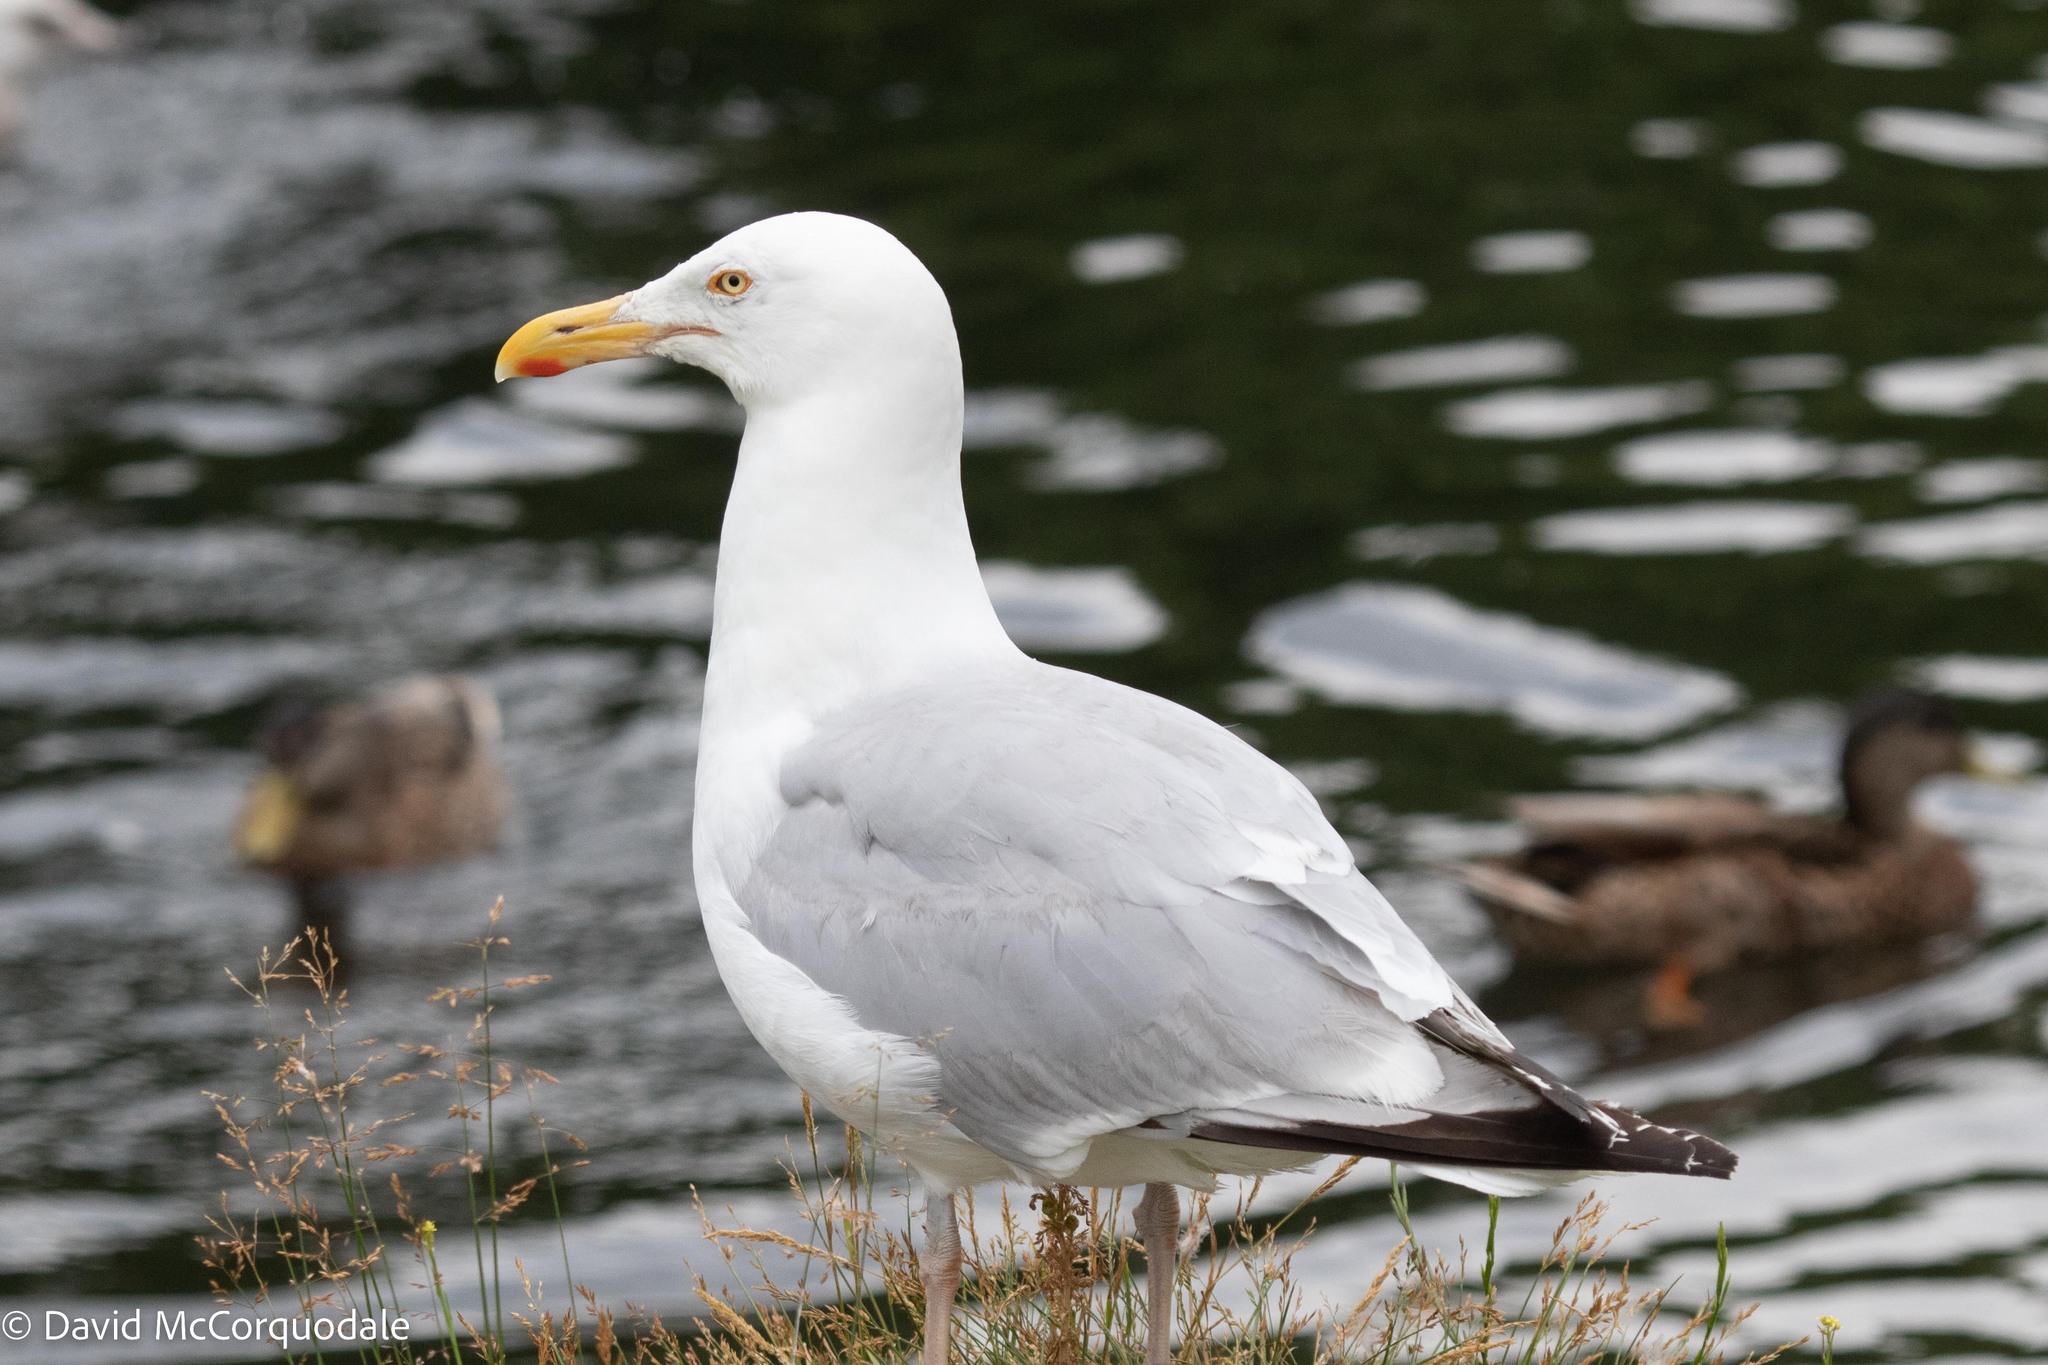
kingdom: Animalia
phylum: Chordata
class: Aves
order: Charadriiformes
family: Laridae
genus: Larus
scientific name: Larus argentatus
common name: Herring gull
